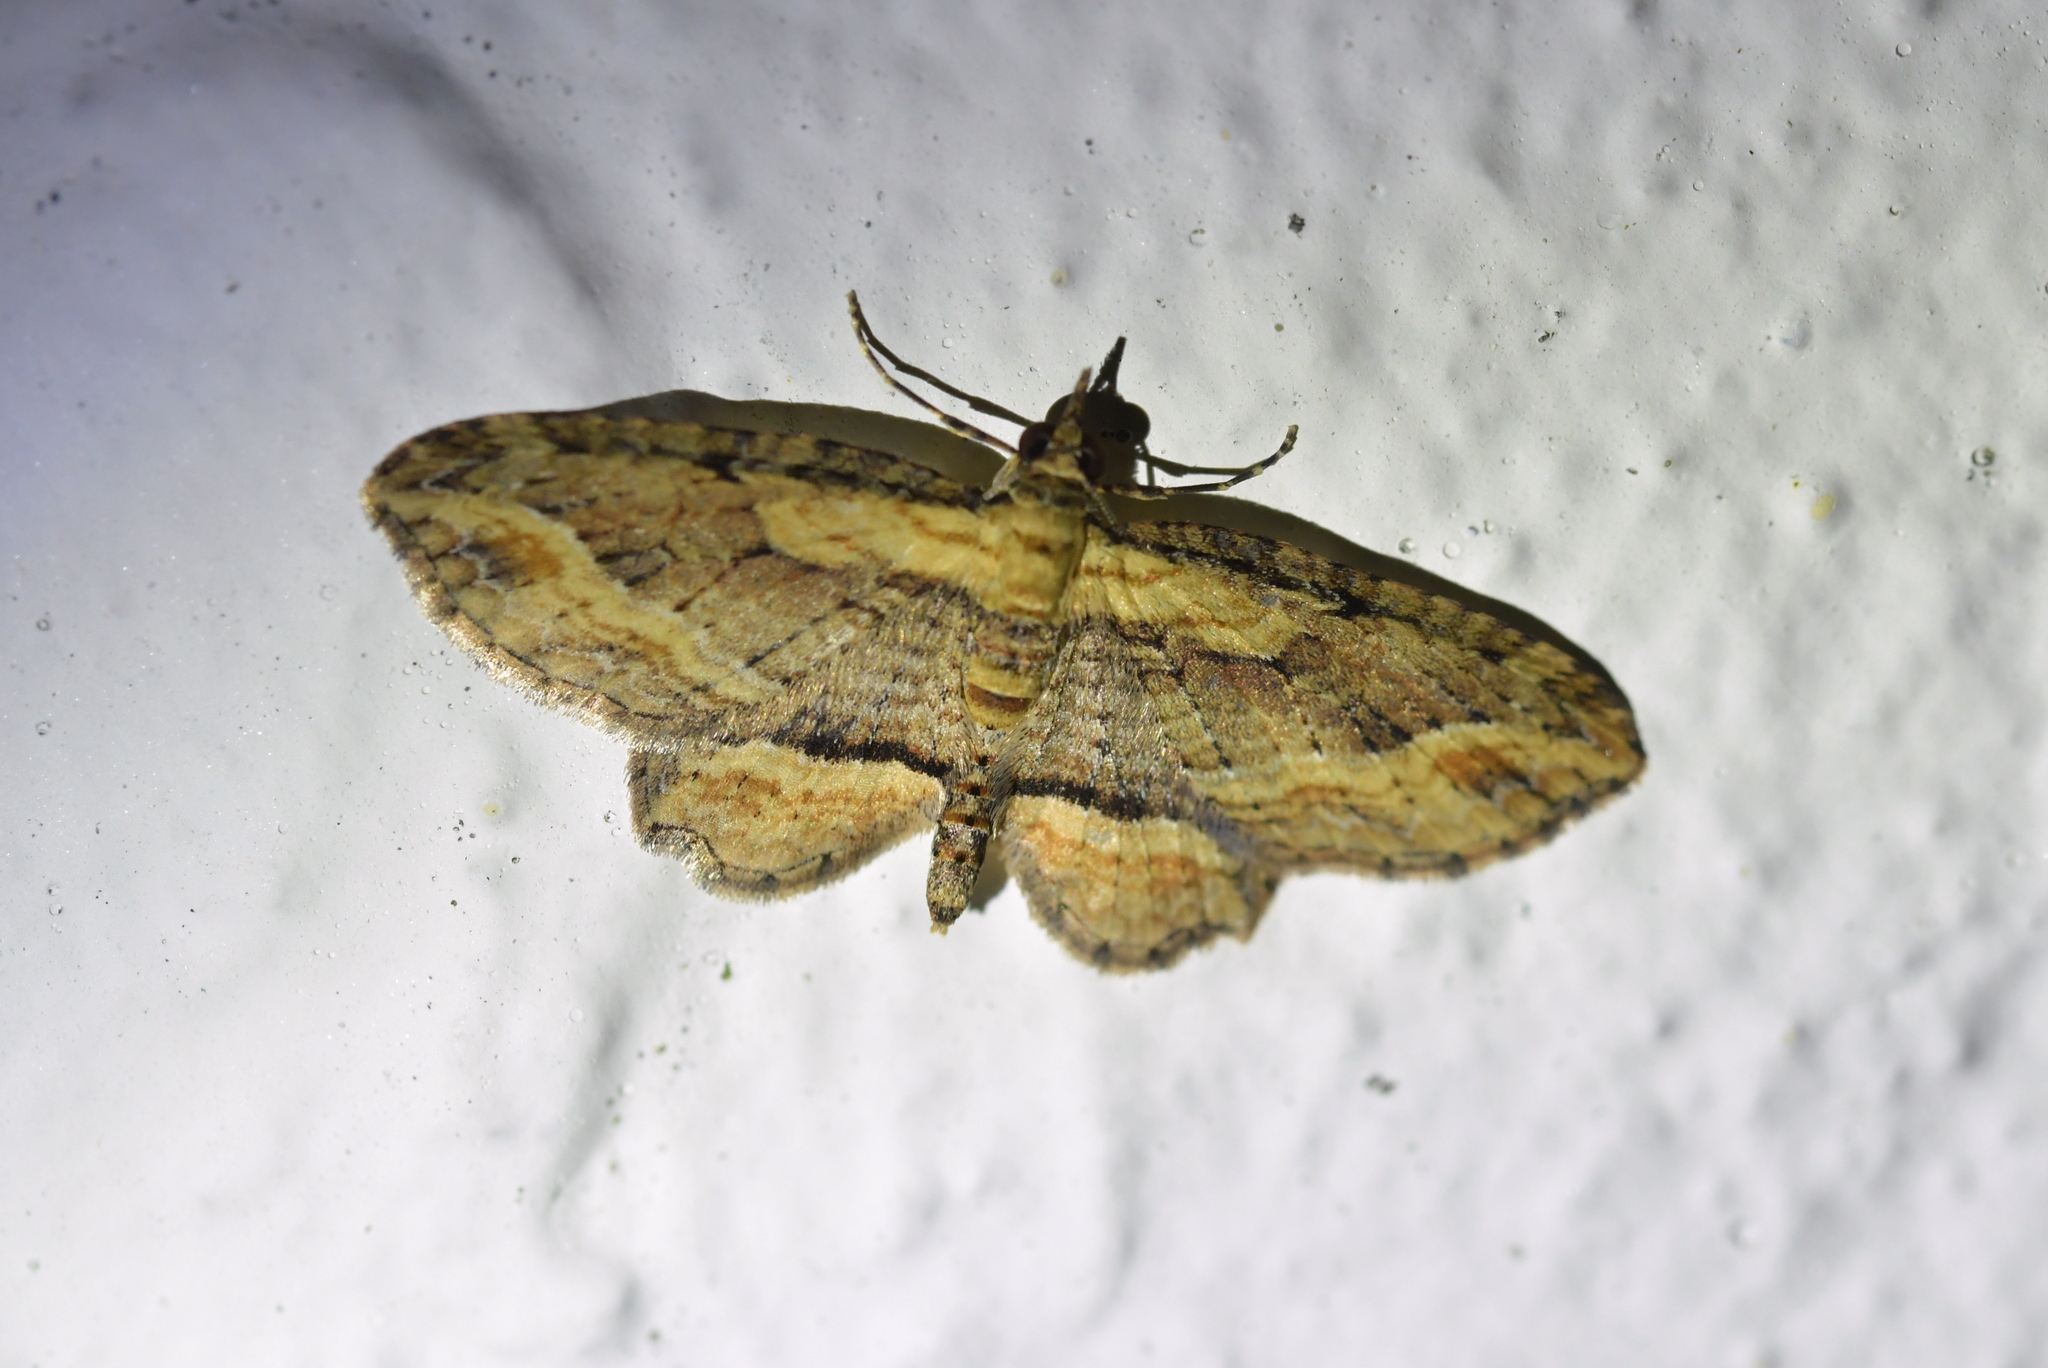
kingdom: Animalia
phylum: Arthropoda
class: Insecta
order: Lepidoptera
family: Geometridae
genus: Chloroclystis
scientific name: Chloroclystis filata
